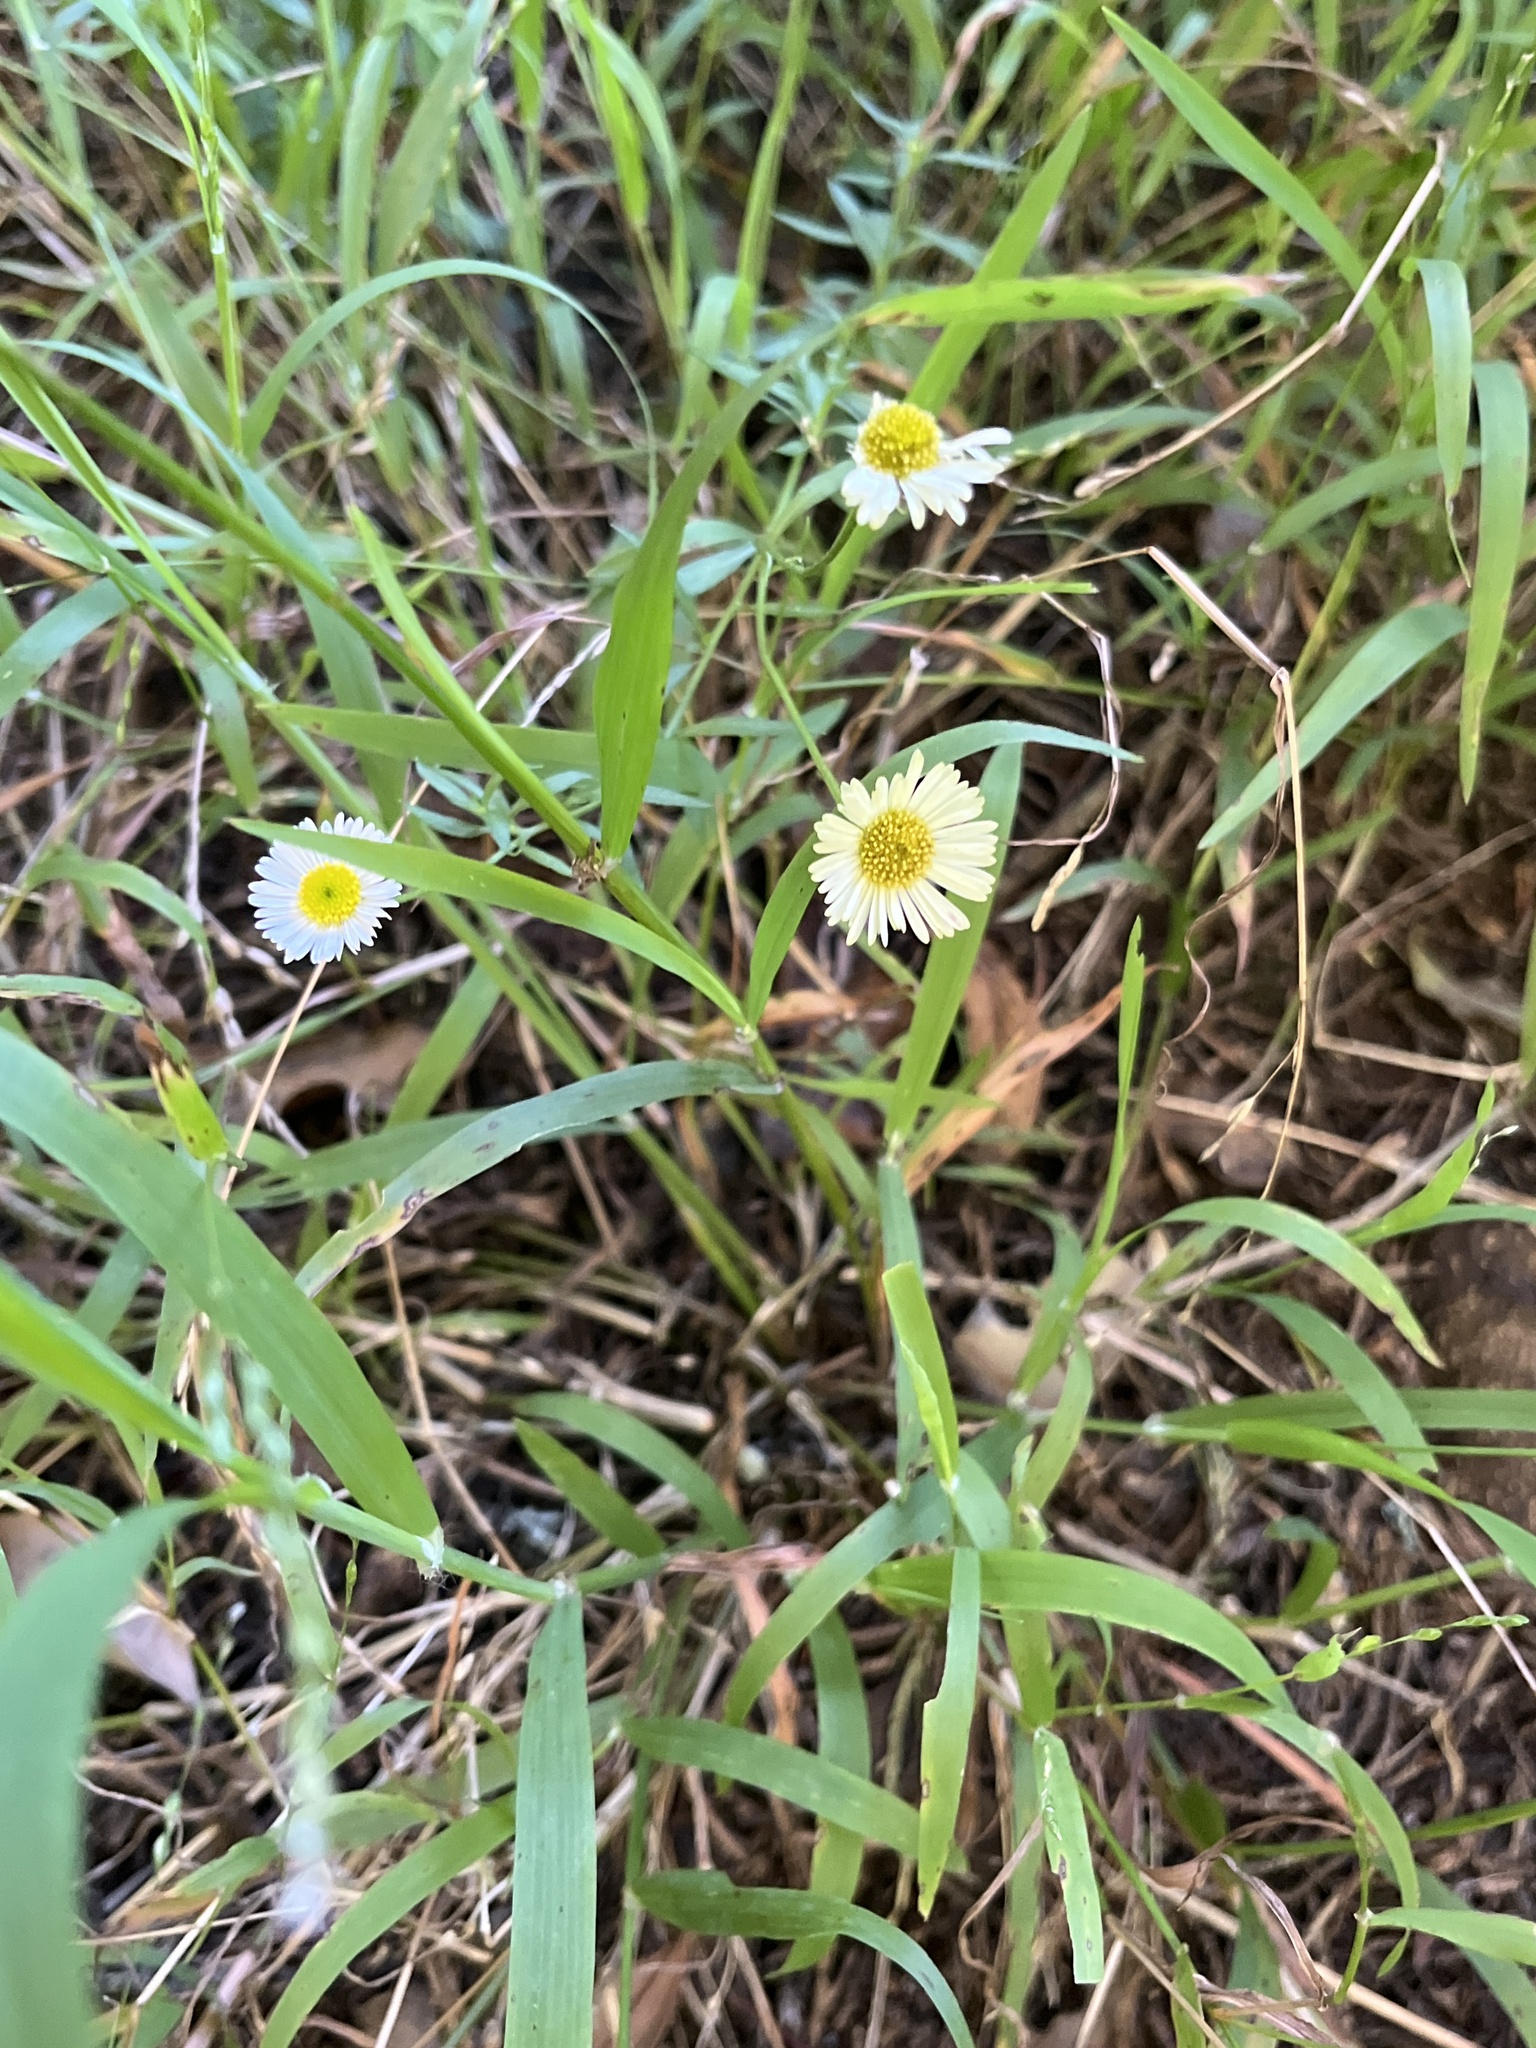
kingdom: Plantae
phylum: Tracheophyta
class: Magnoliopsida
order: Asterales
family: Asteraceae
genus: Erigeron
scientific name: Erigeron karvinskianus
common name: Mexican fleabane
